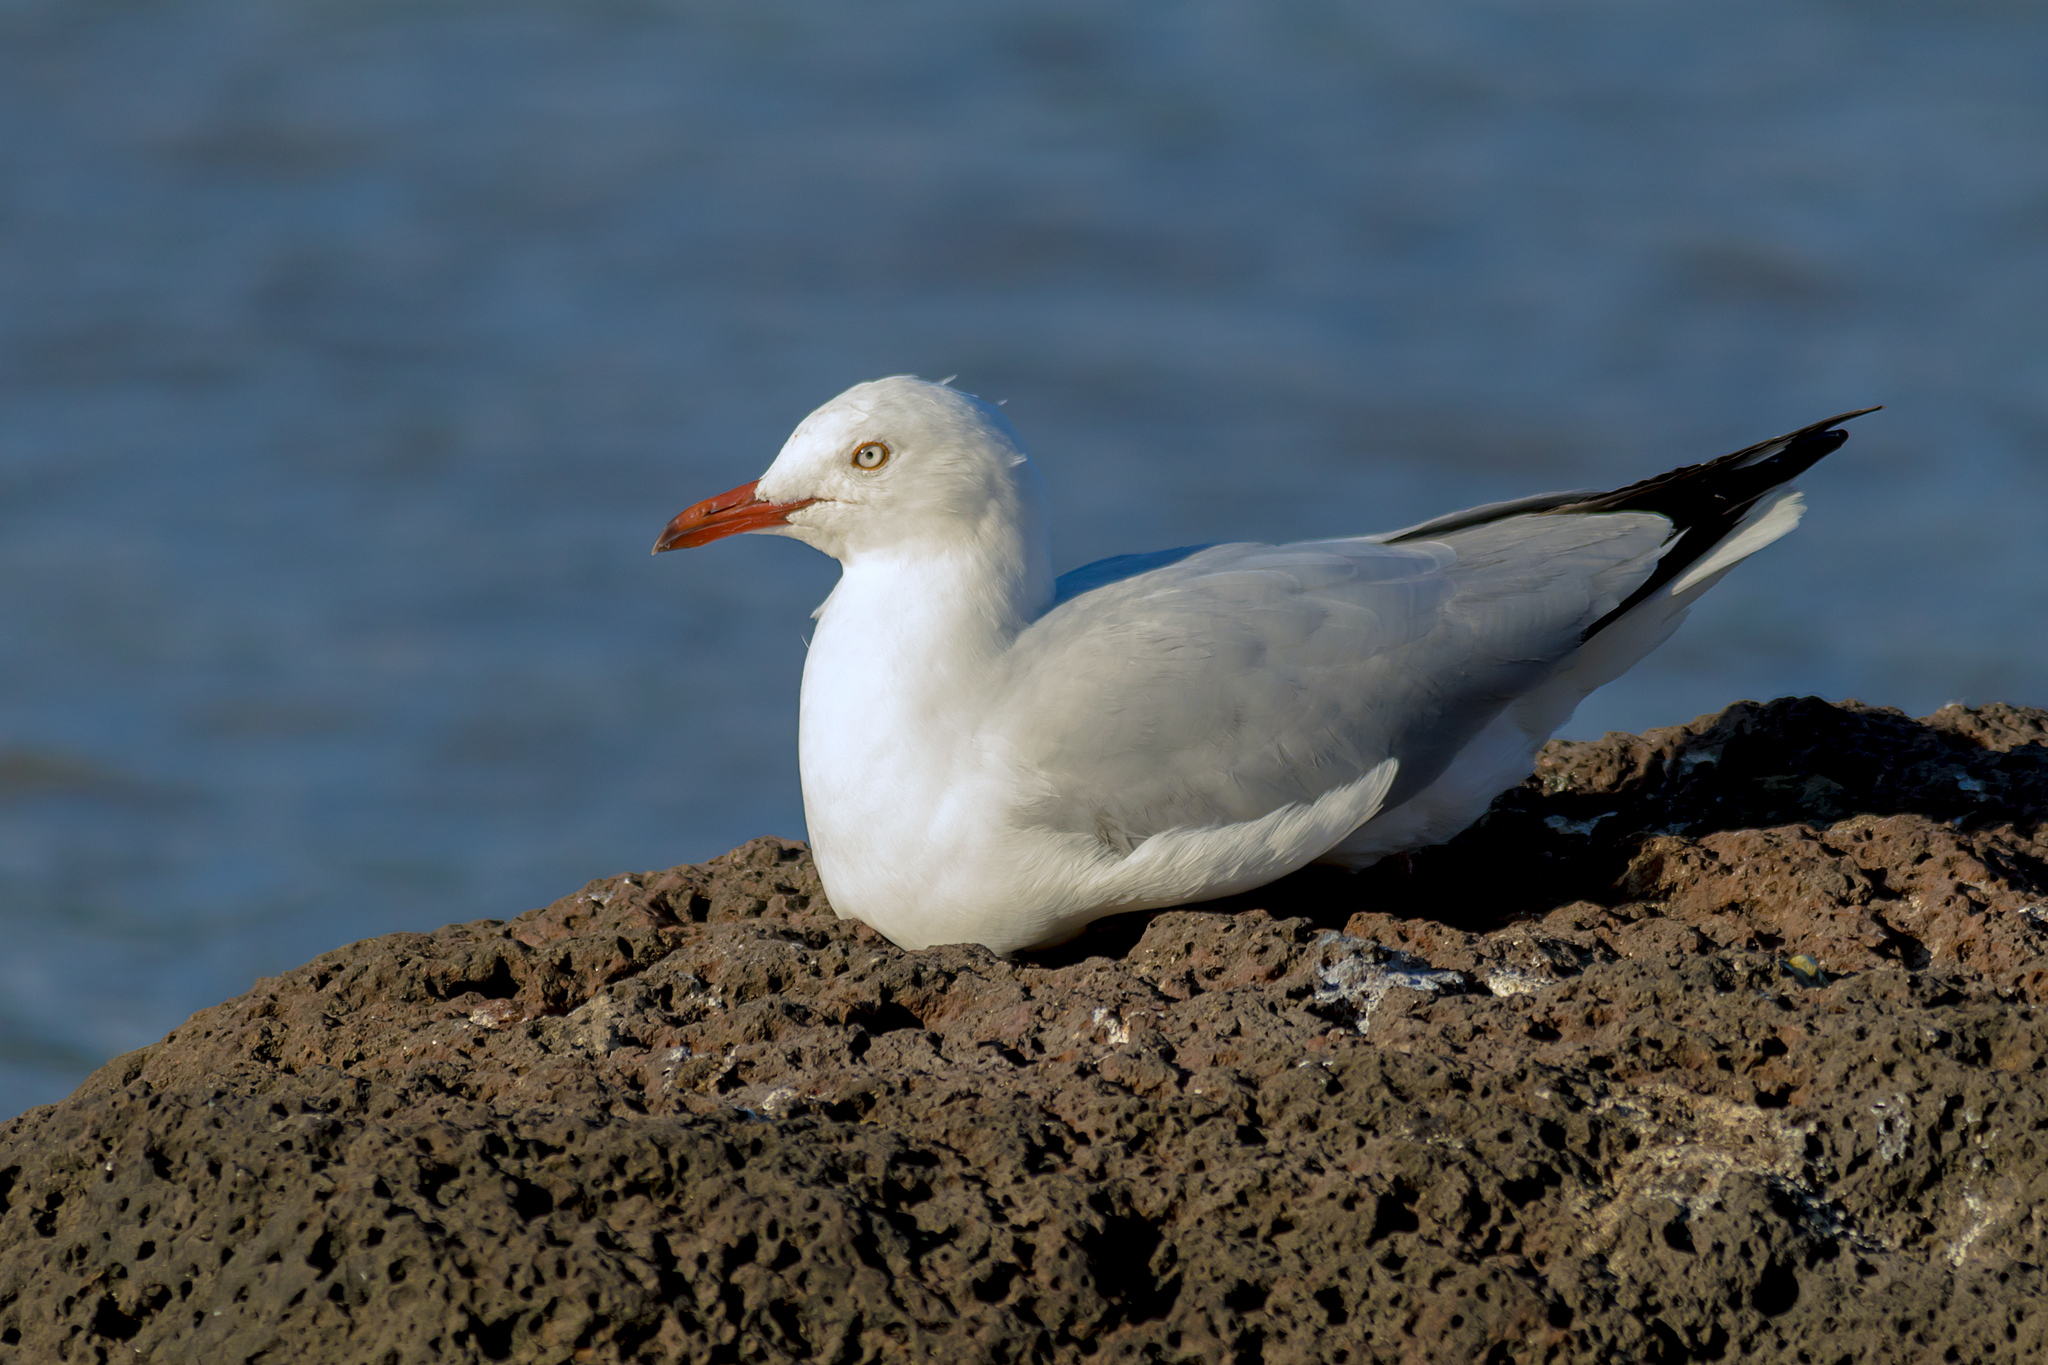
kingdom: Animalia
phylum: Chordata
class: Aves
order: Charadriiformes
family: Laridae
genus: Chroicocephalus
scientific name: Chroicocephalus novaehollandiae
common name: Silver gull
